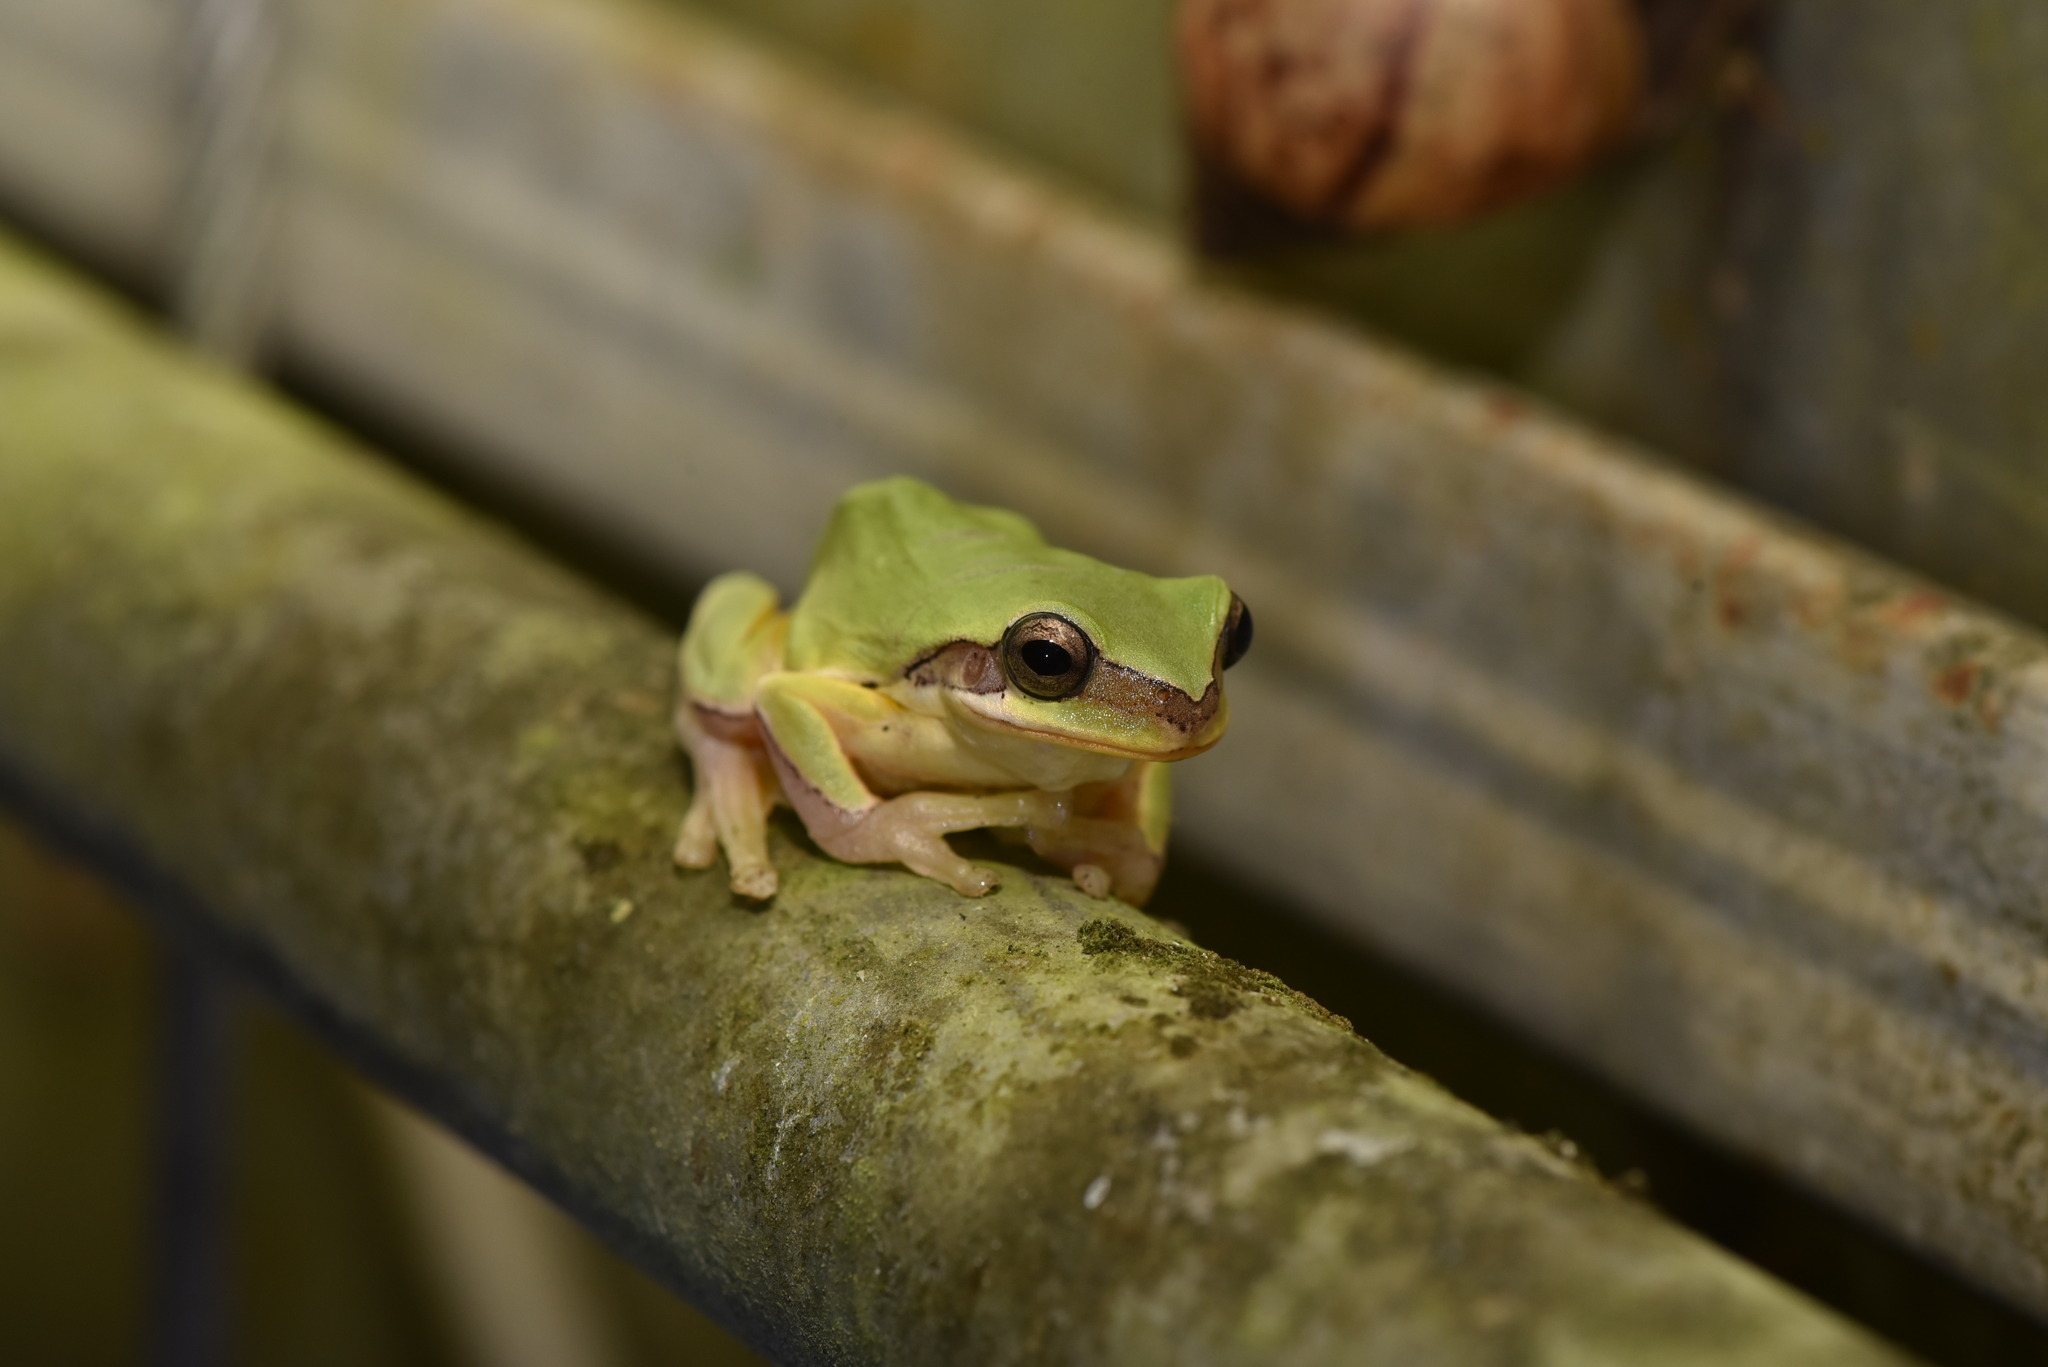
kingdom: Animalia
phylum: Chordata
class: Amphibia
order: Anura
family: Hylidae
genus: Hyla
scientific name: Hyla chinensis
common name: Common chinese treefrog
